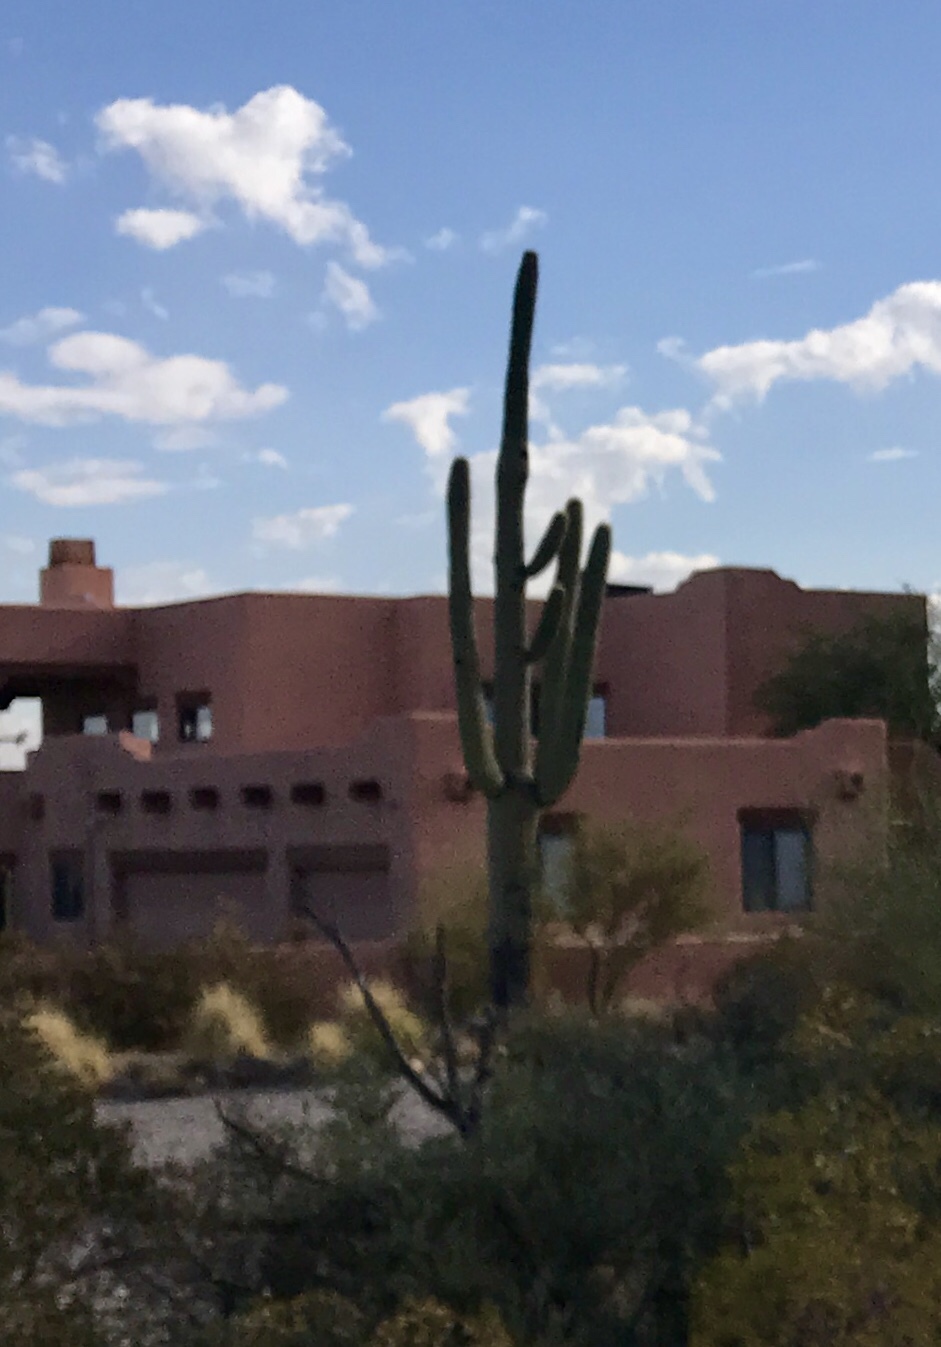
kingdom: Plantae
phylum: Tracheophyta
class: Magnoliopsida
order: Caryophyllales
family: Cactaceae
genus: Carnegiea
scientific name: Carnegiea gigantea
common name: Saguaro
